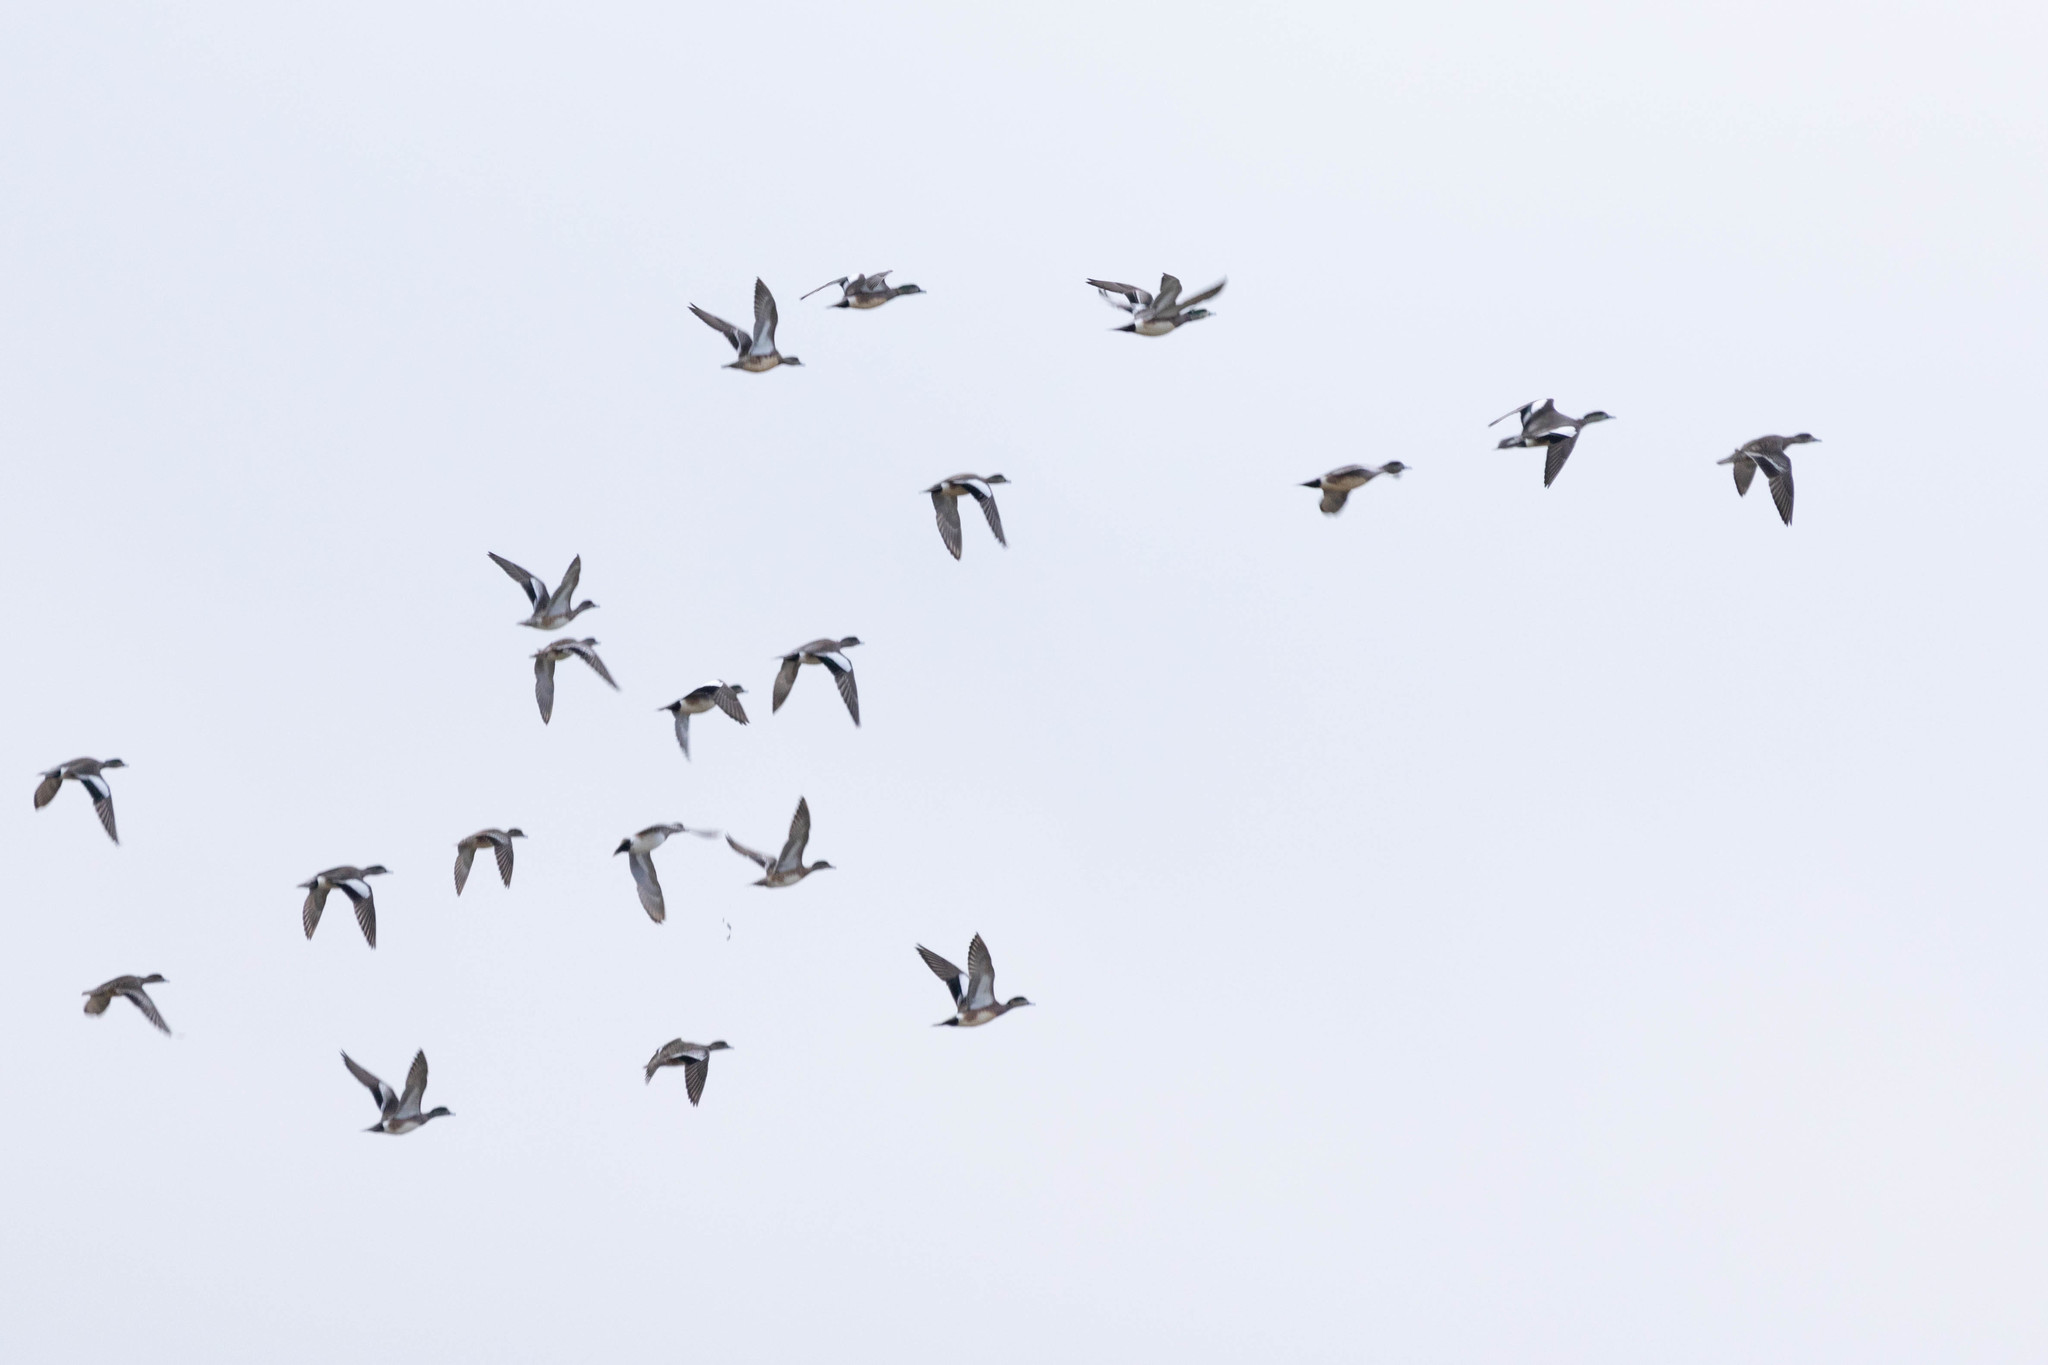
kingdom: Animalia
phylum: Chordata
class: Aves
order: Anseriformes
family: Anatidae
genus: Mareca
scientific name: Mareca americana
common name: American wigeon
